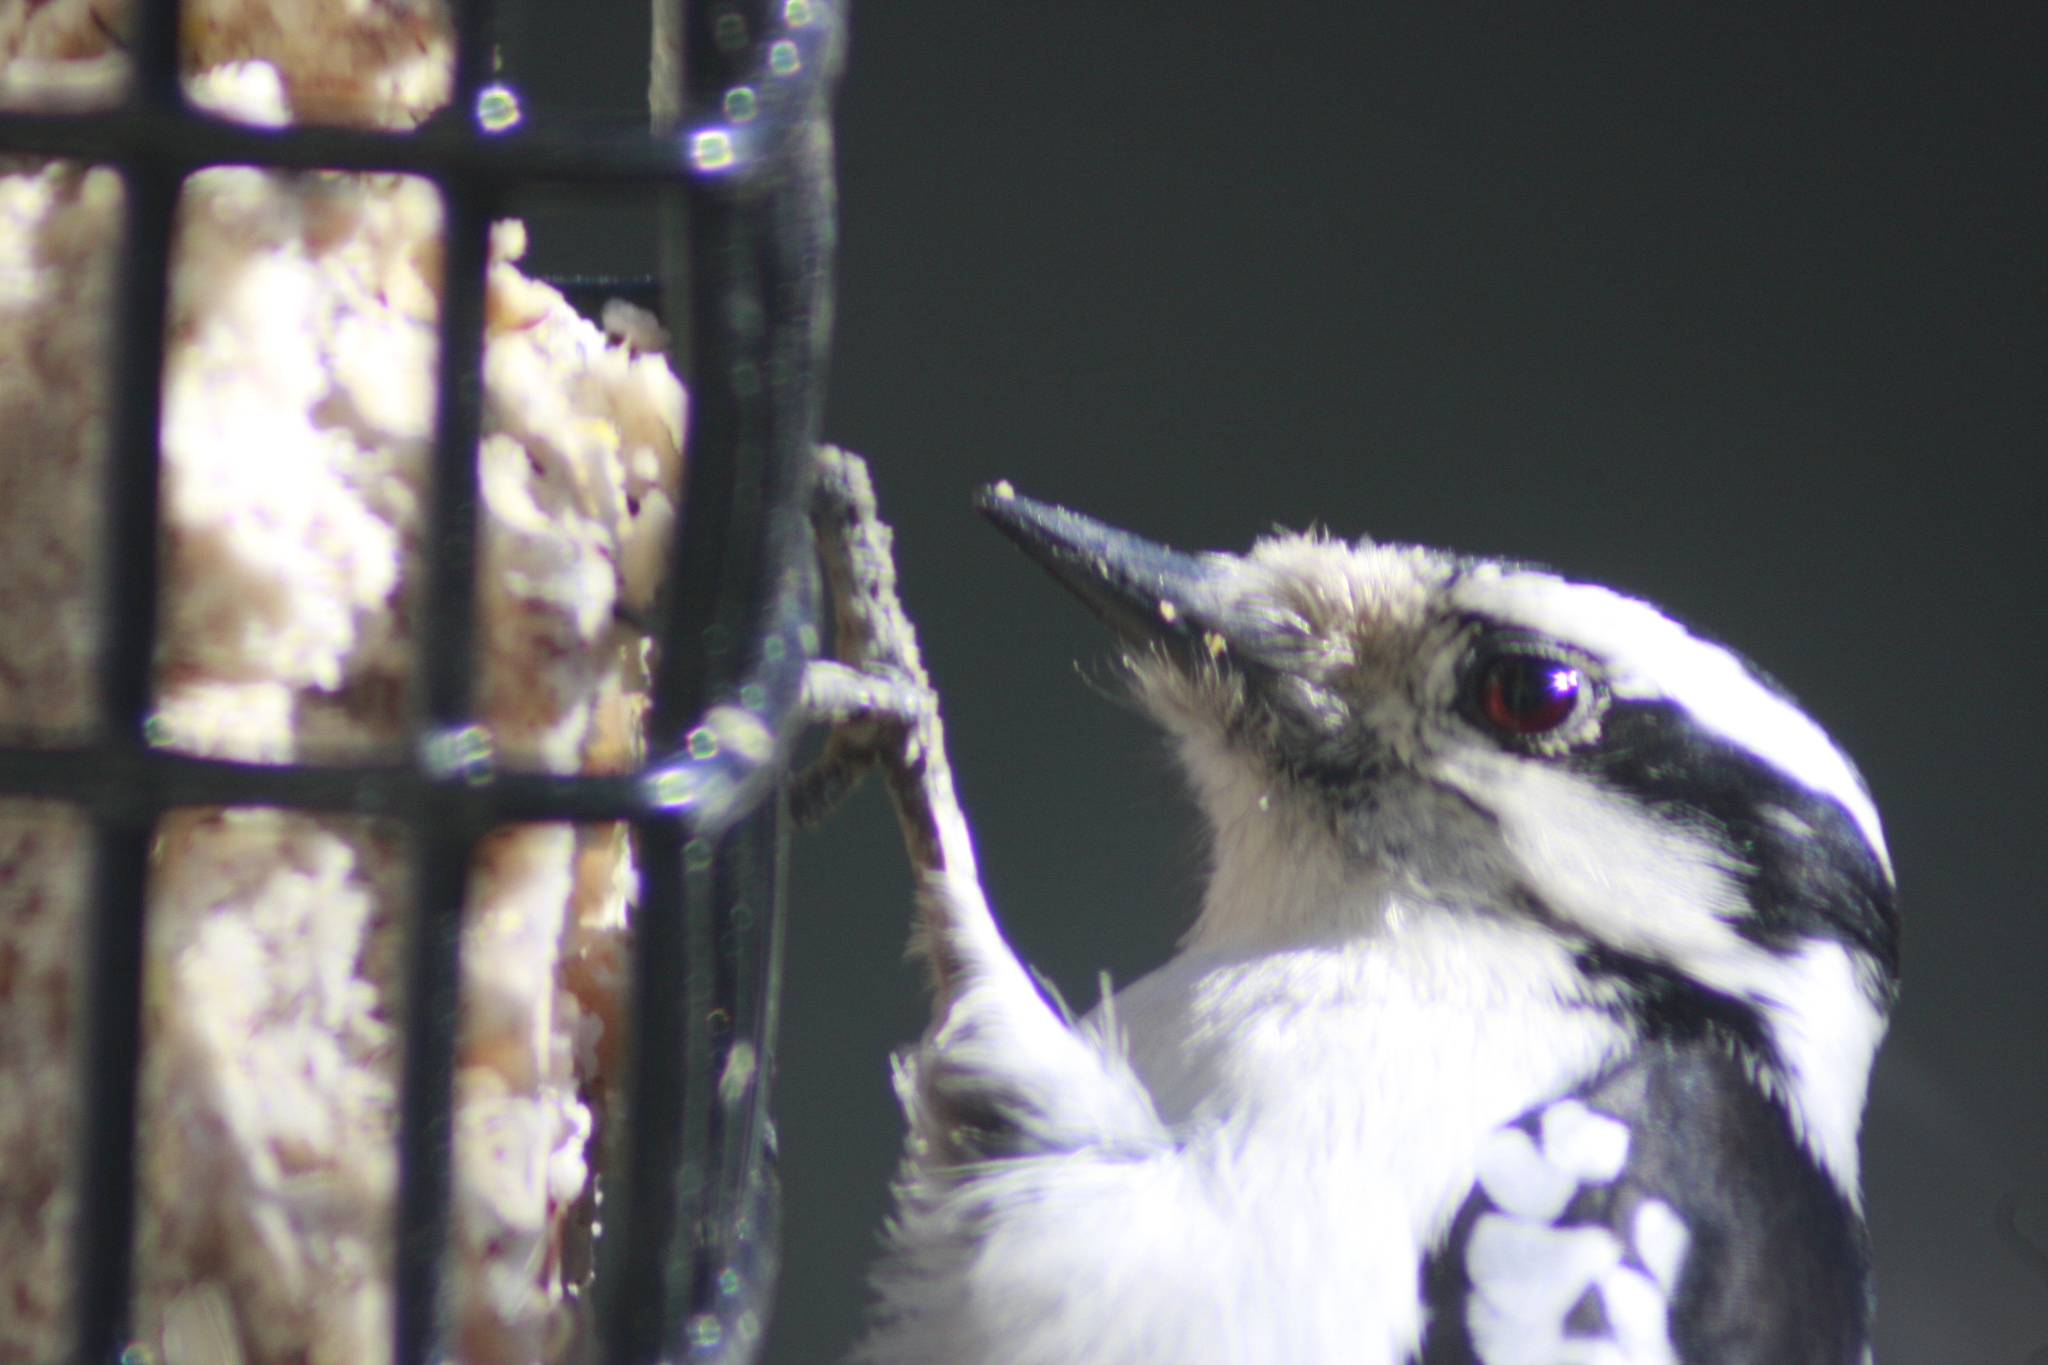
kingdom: Animalia
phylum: Chordata
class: Aves
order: Piciformes
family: Picidae
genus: Dryobates
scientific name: Dryobates pubescens
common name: Downy woodpecker
